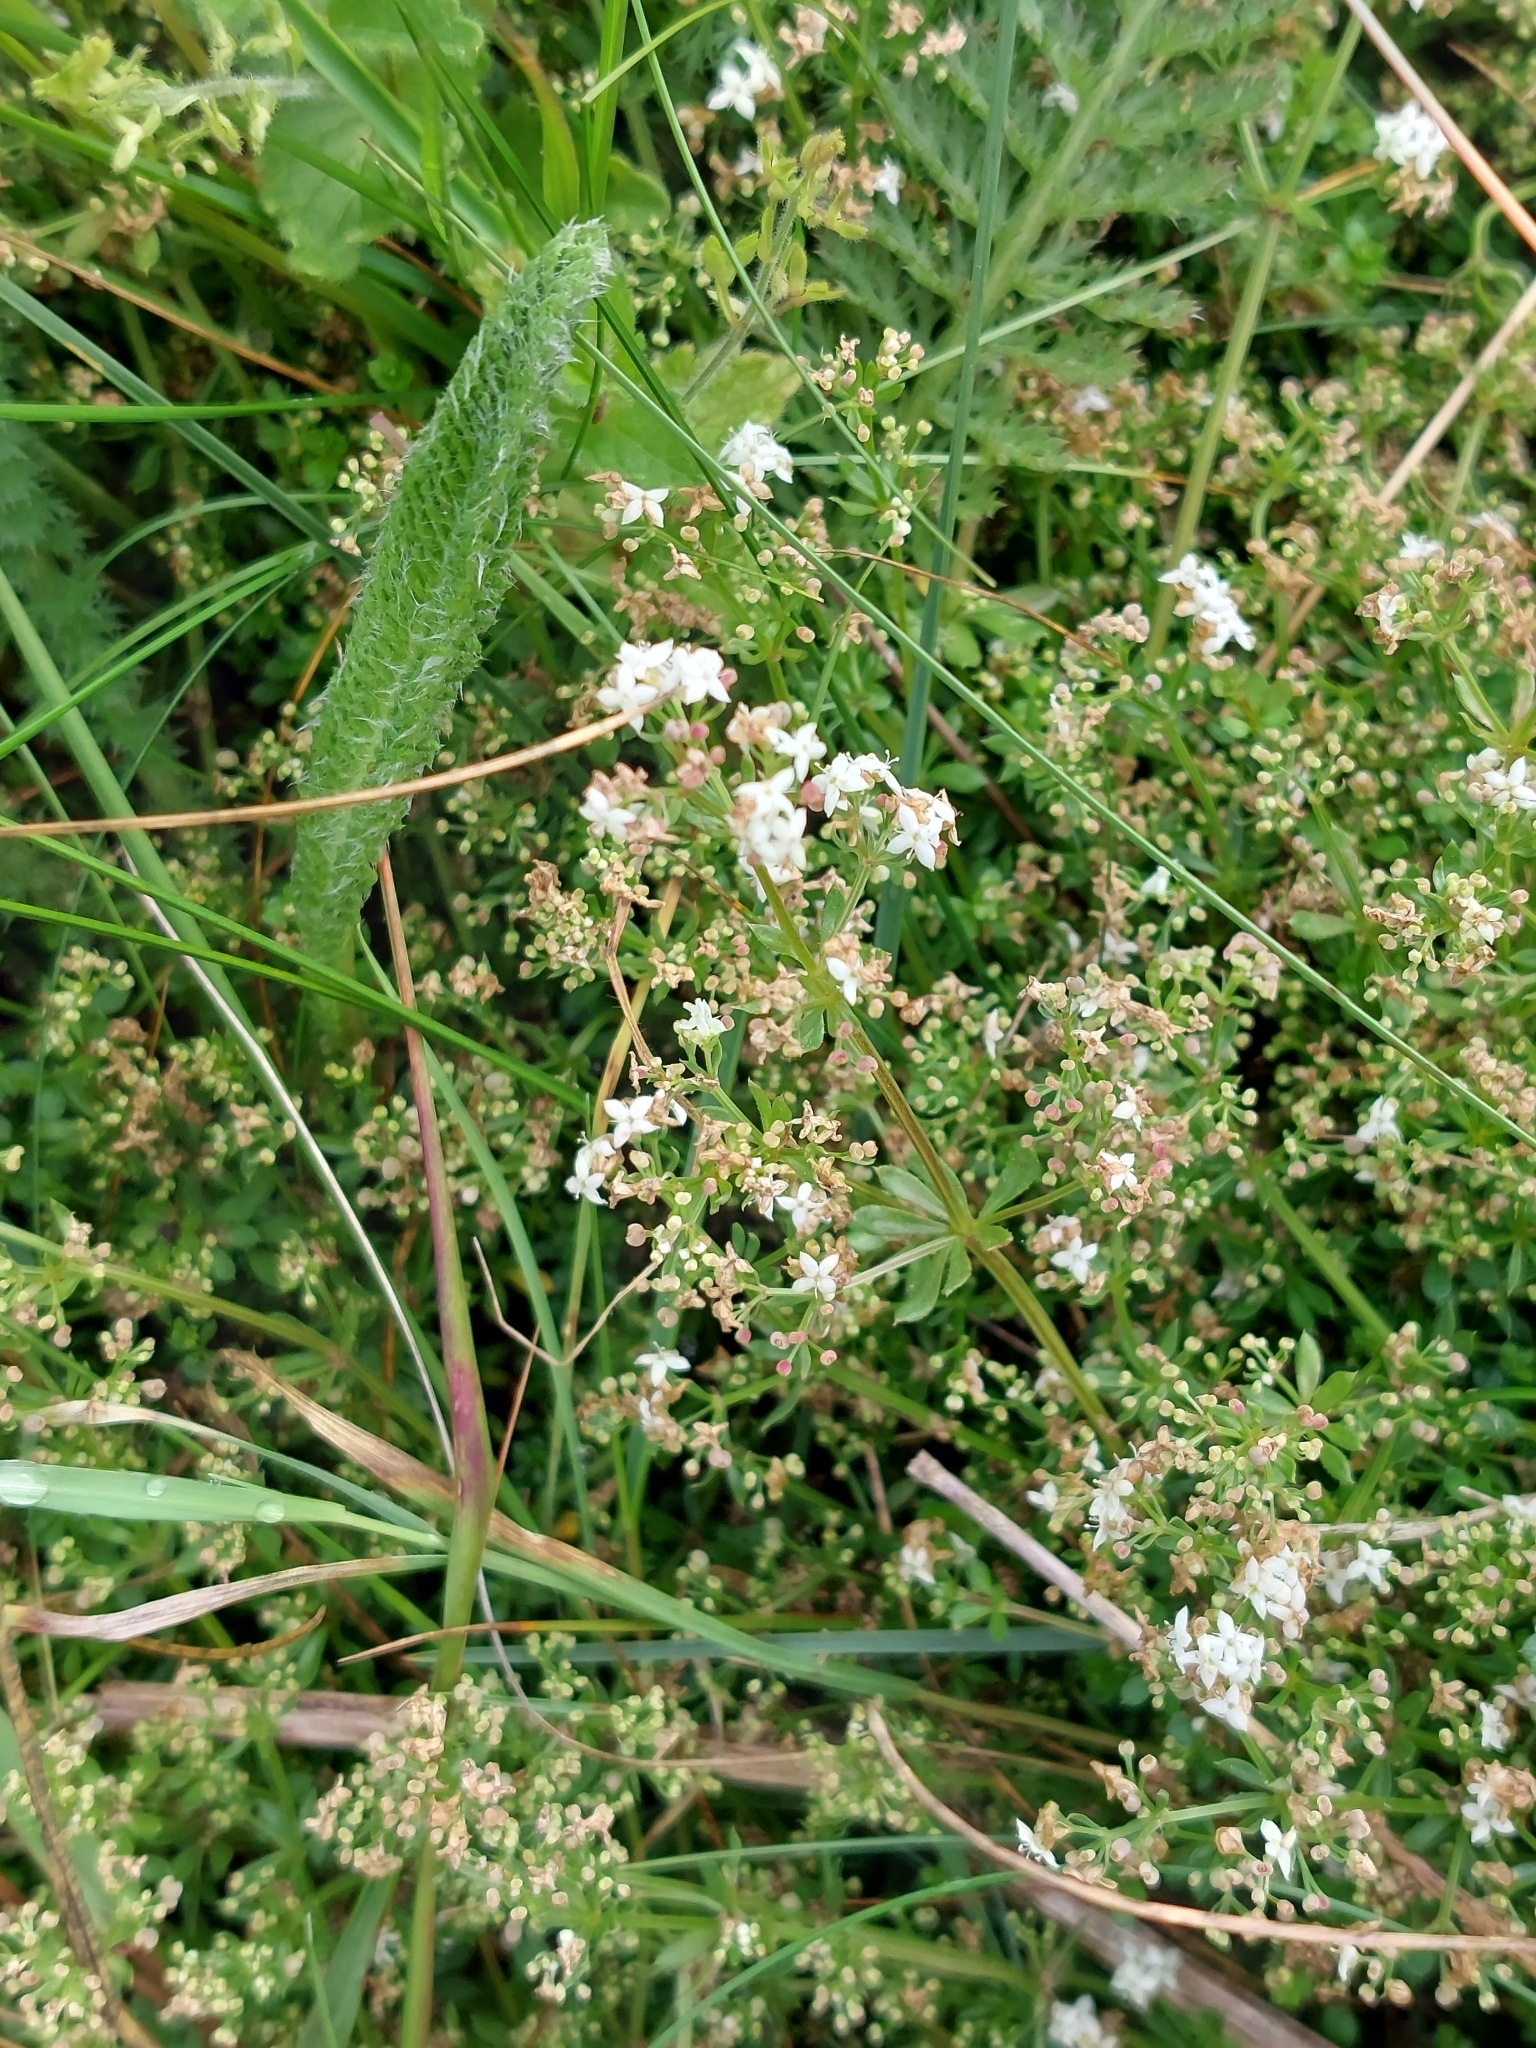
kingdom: Plantae
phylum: Tracheophyta
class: Magnoliopsida
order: Gentianales
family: Rubiaceae
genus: Galium
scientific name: Galium saxatile
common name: Heath bedstraw
